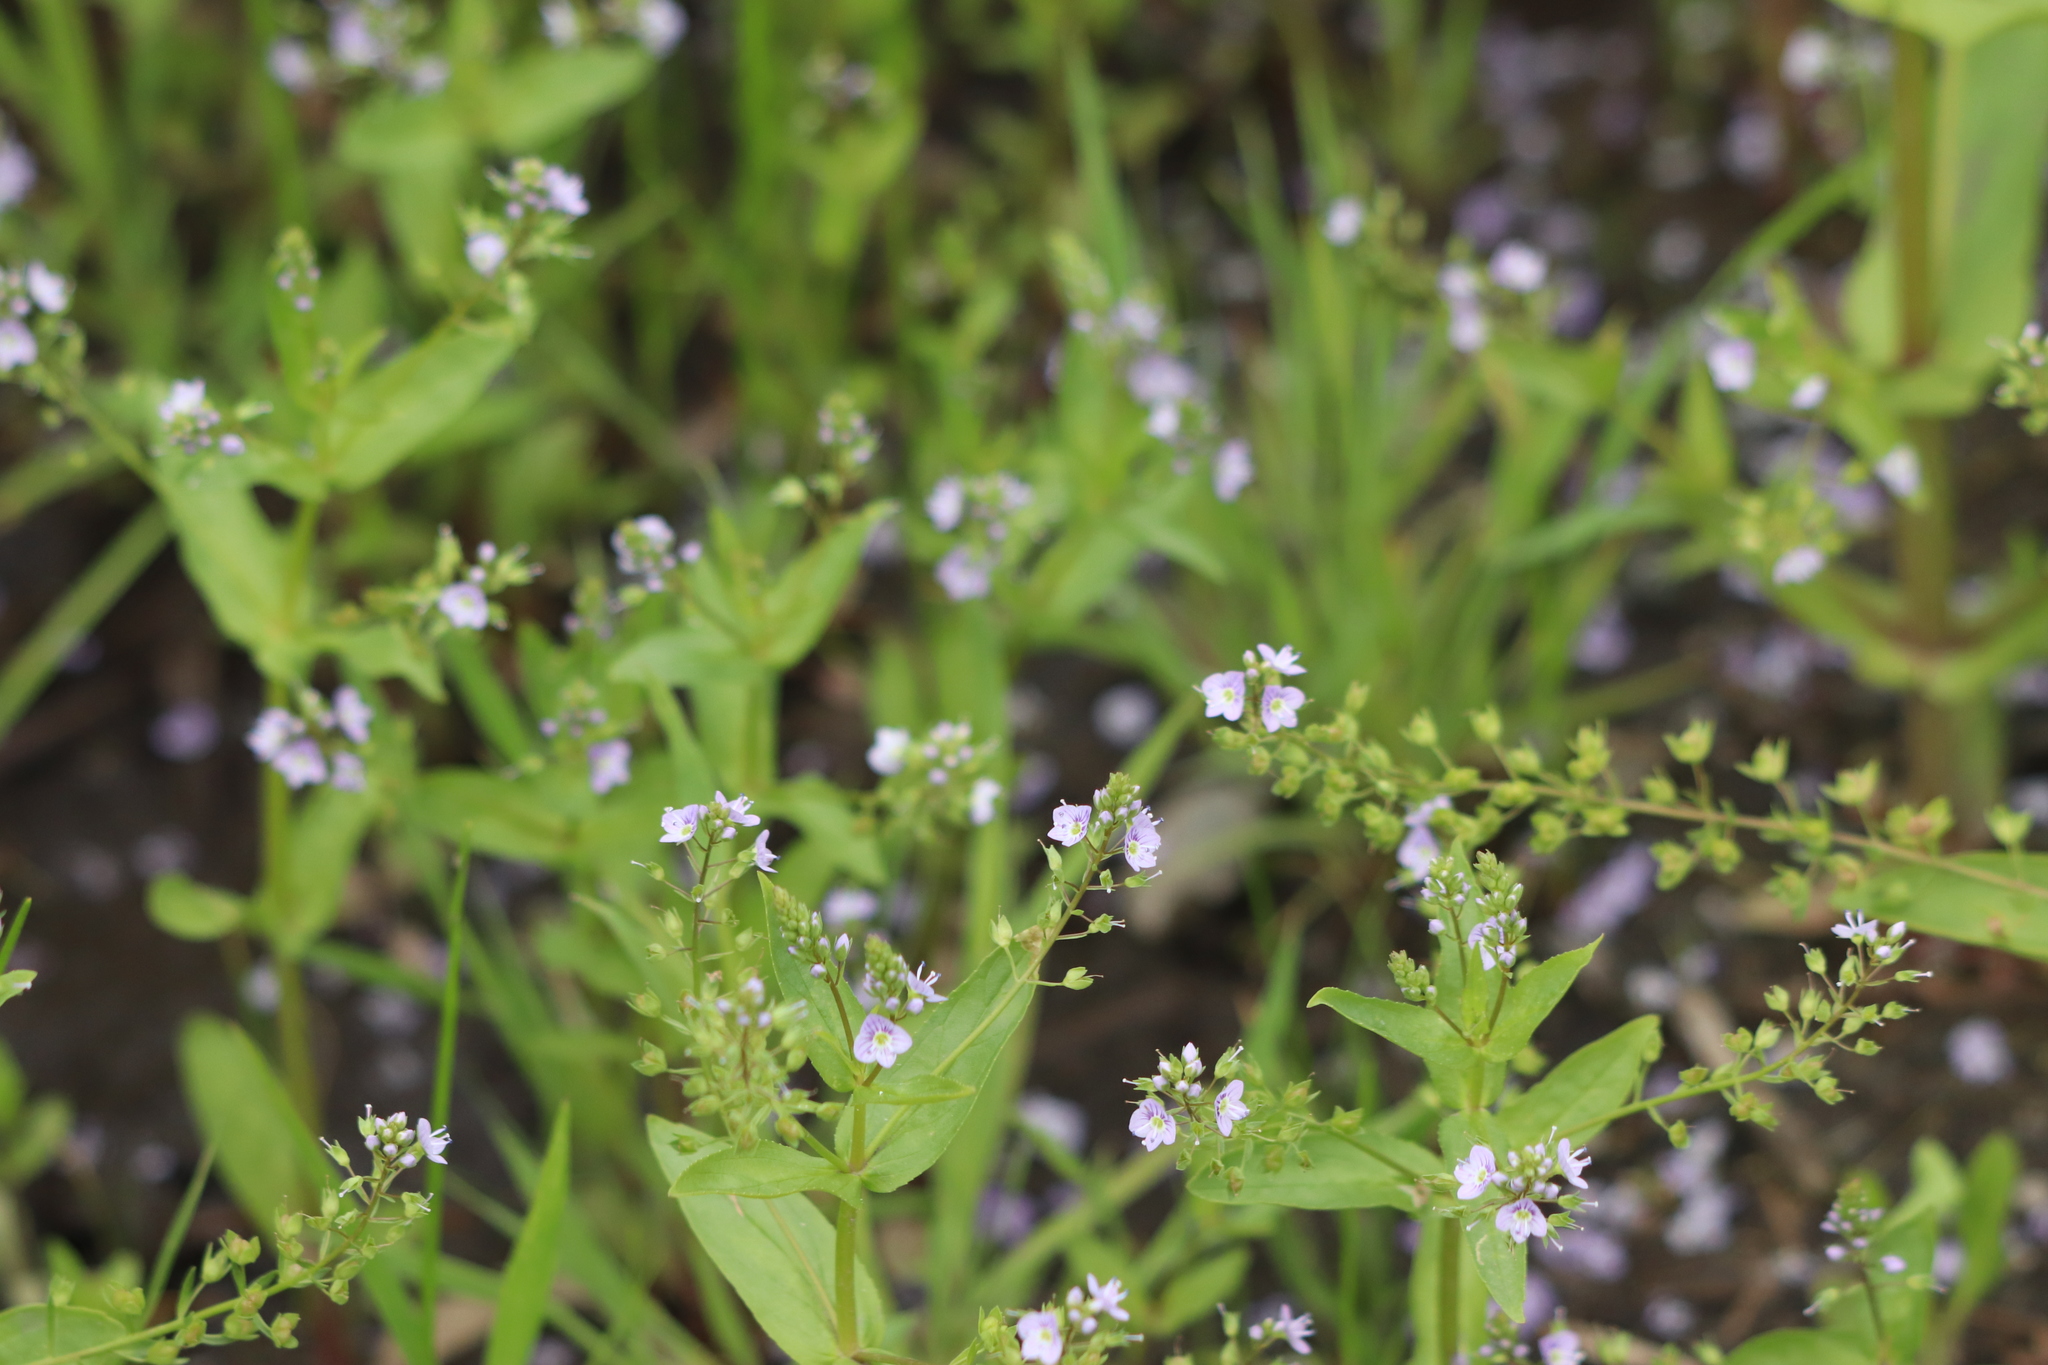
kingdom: Plantae
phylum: Tracheophyta
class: Magnoliopsida
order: Lamiales
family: Plantaginaceae
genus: Veronica
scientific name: Veronica anagallis-aquatica
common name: Water speedwell
